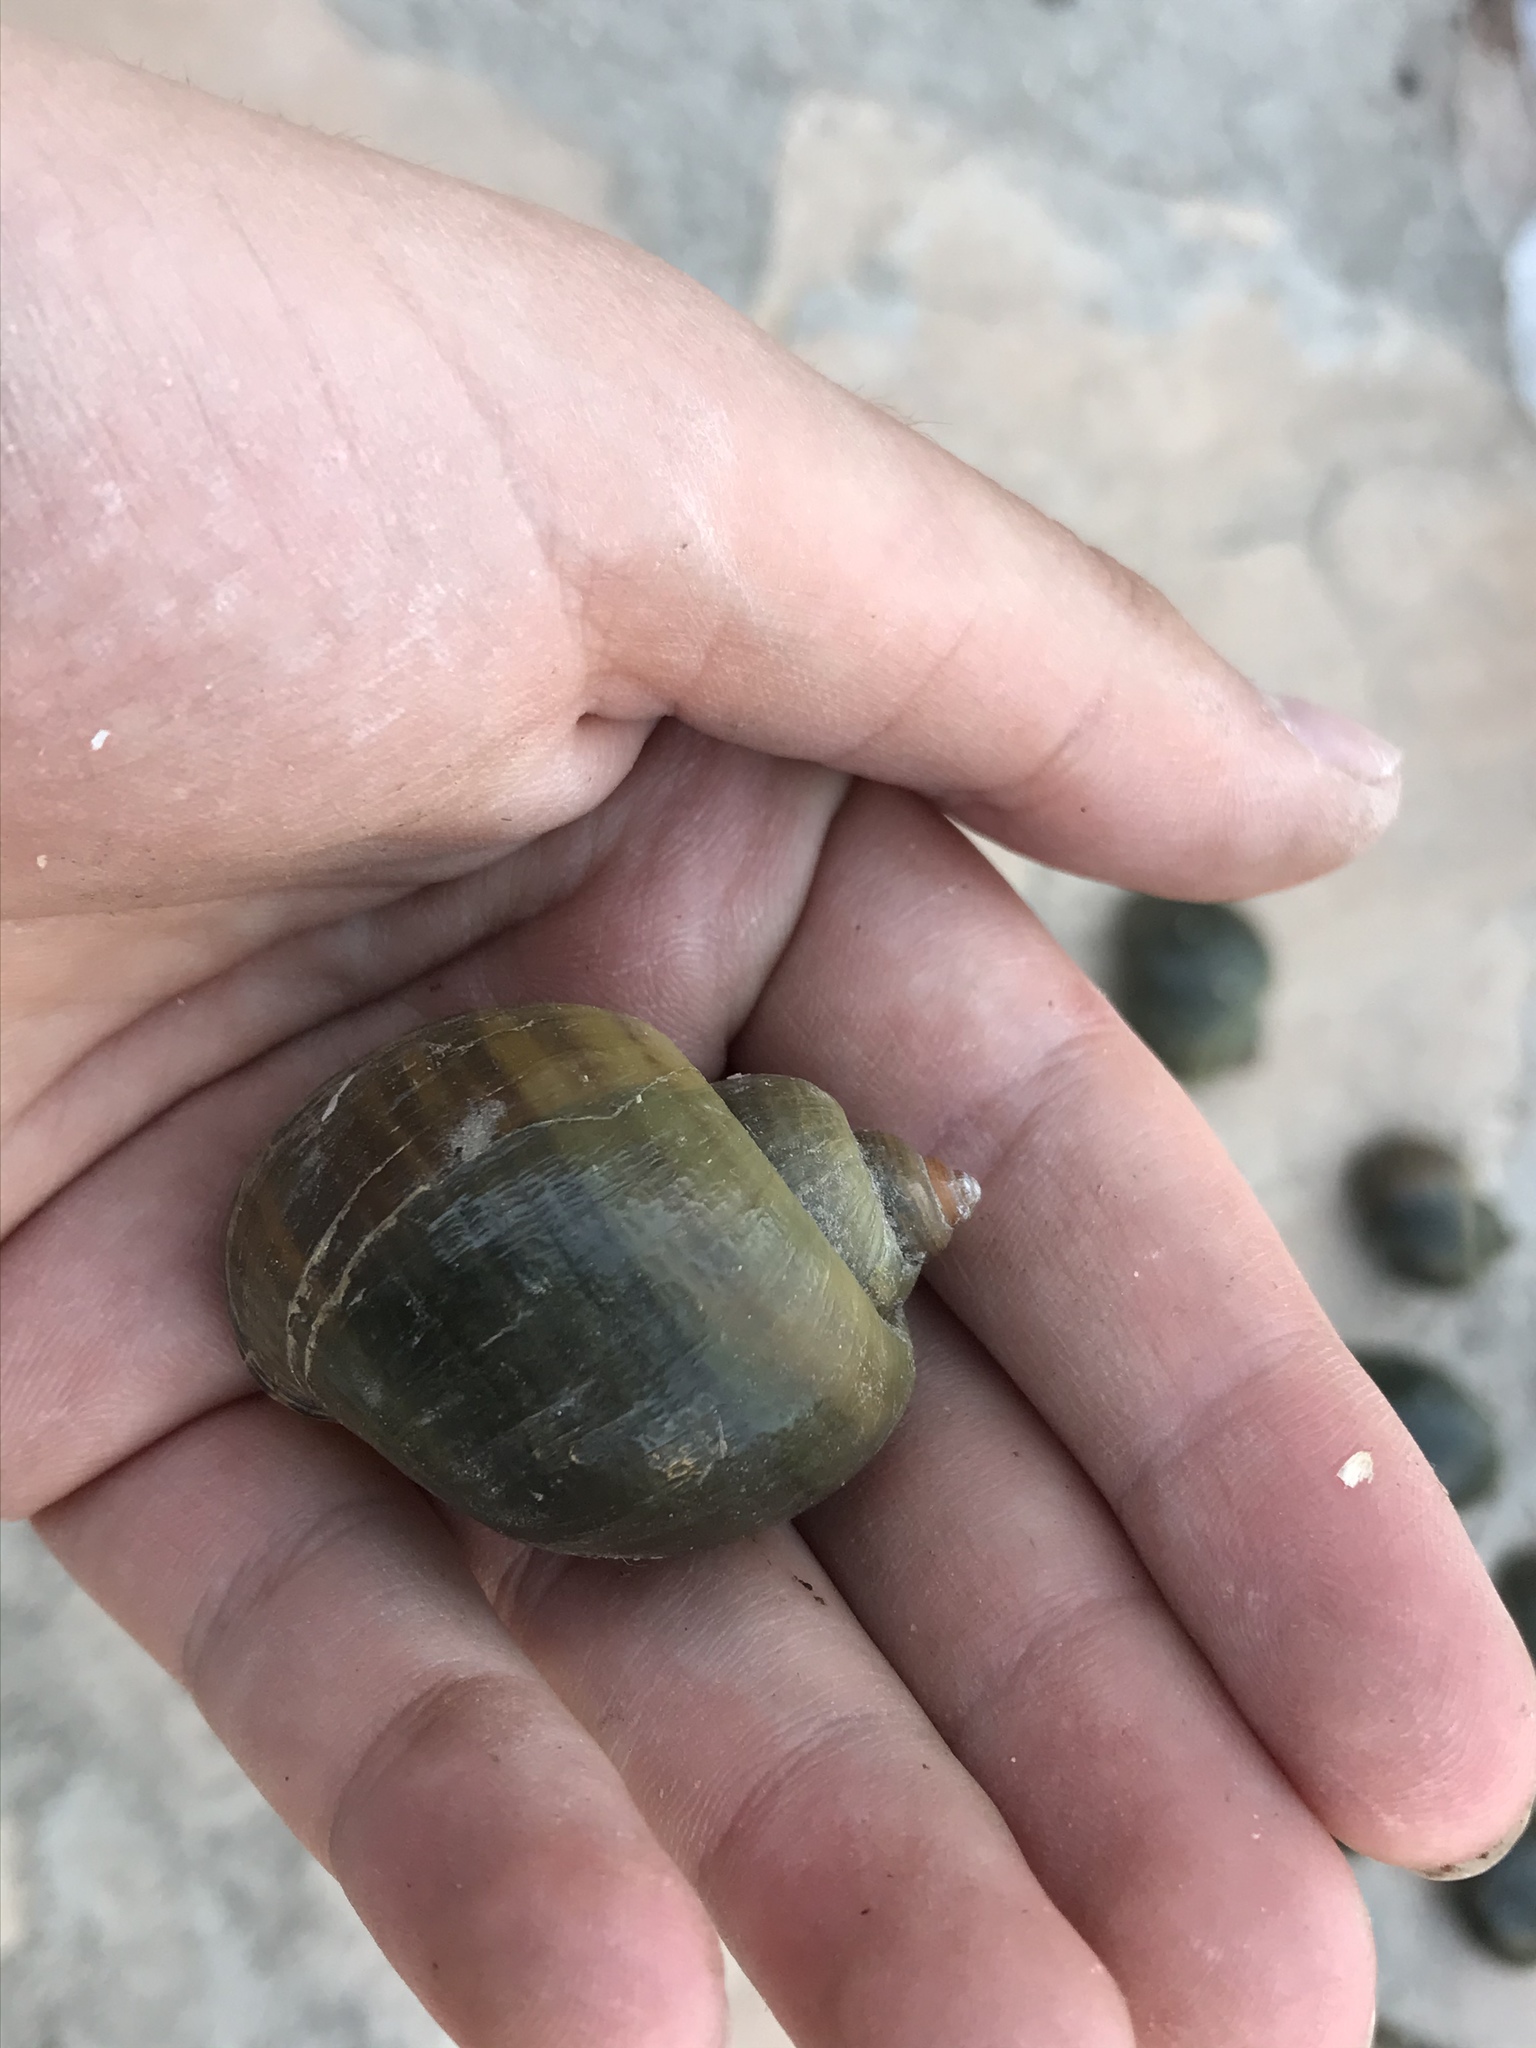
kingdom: Animalia
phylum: Mollusca
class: Gastropoda
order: Architaenioglossa
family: Ampullariidae
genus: Pomacea
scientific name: Pomacea canaliculata
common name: Channeled applesnail
